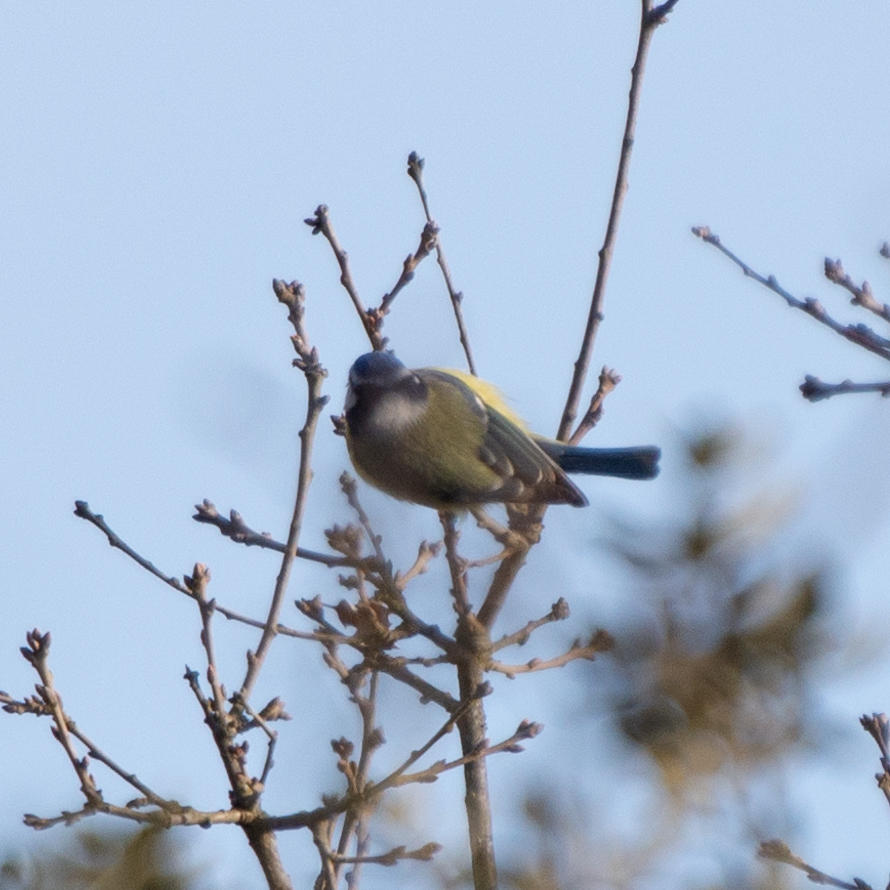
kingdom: Animalia
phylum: Chordata
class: Aves
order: Passeriformes
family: Paridae
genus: Cyanistes
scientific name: Cyanistes caeruleus
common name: Eurasian blue tit
